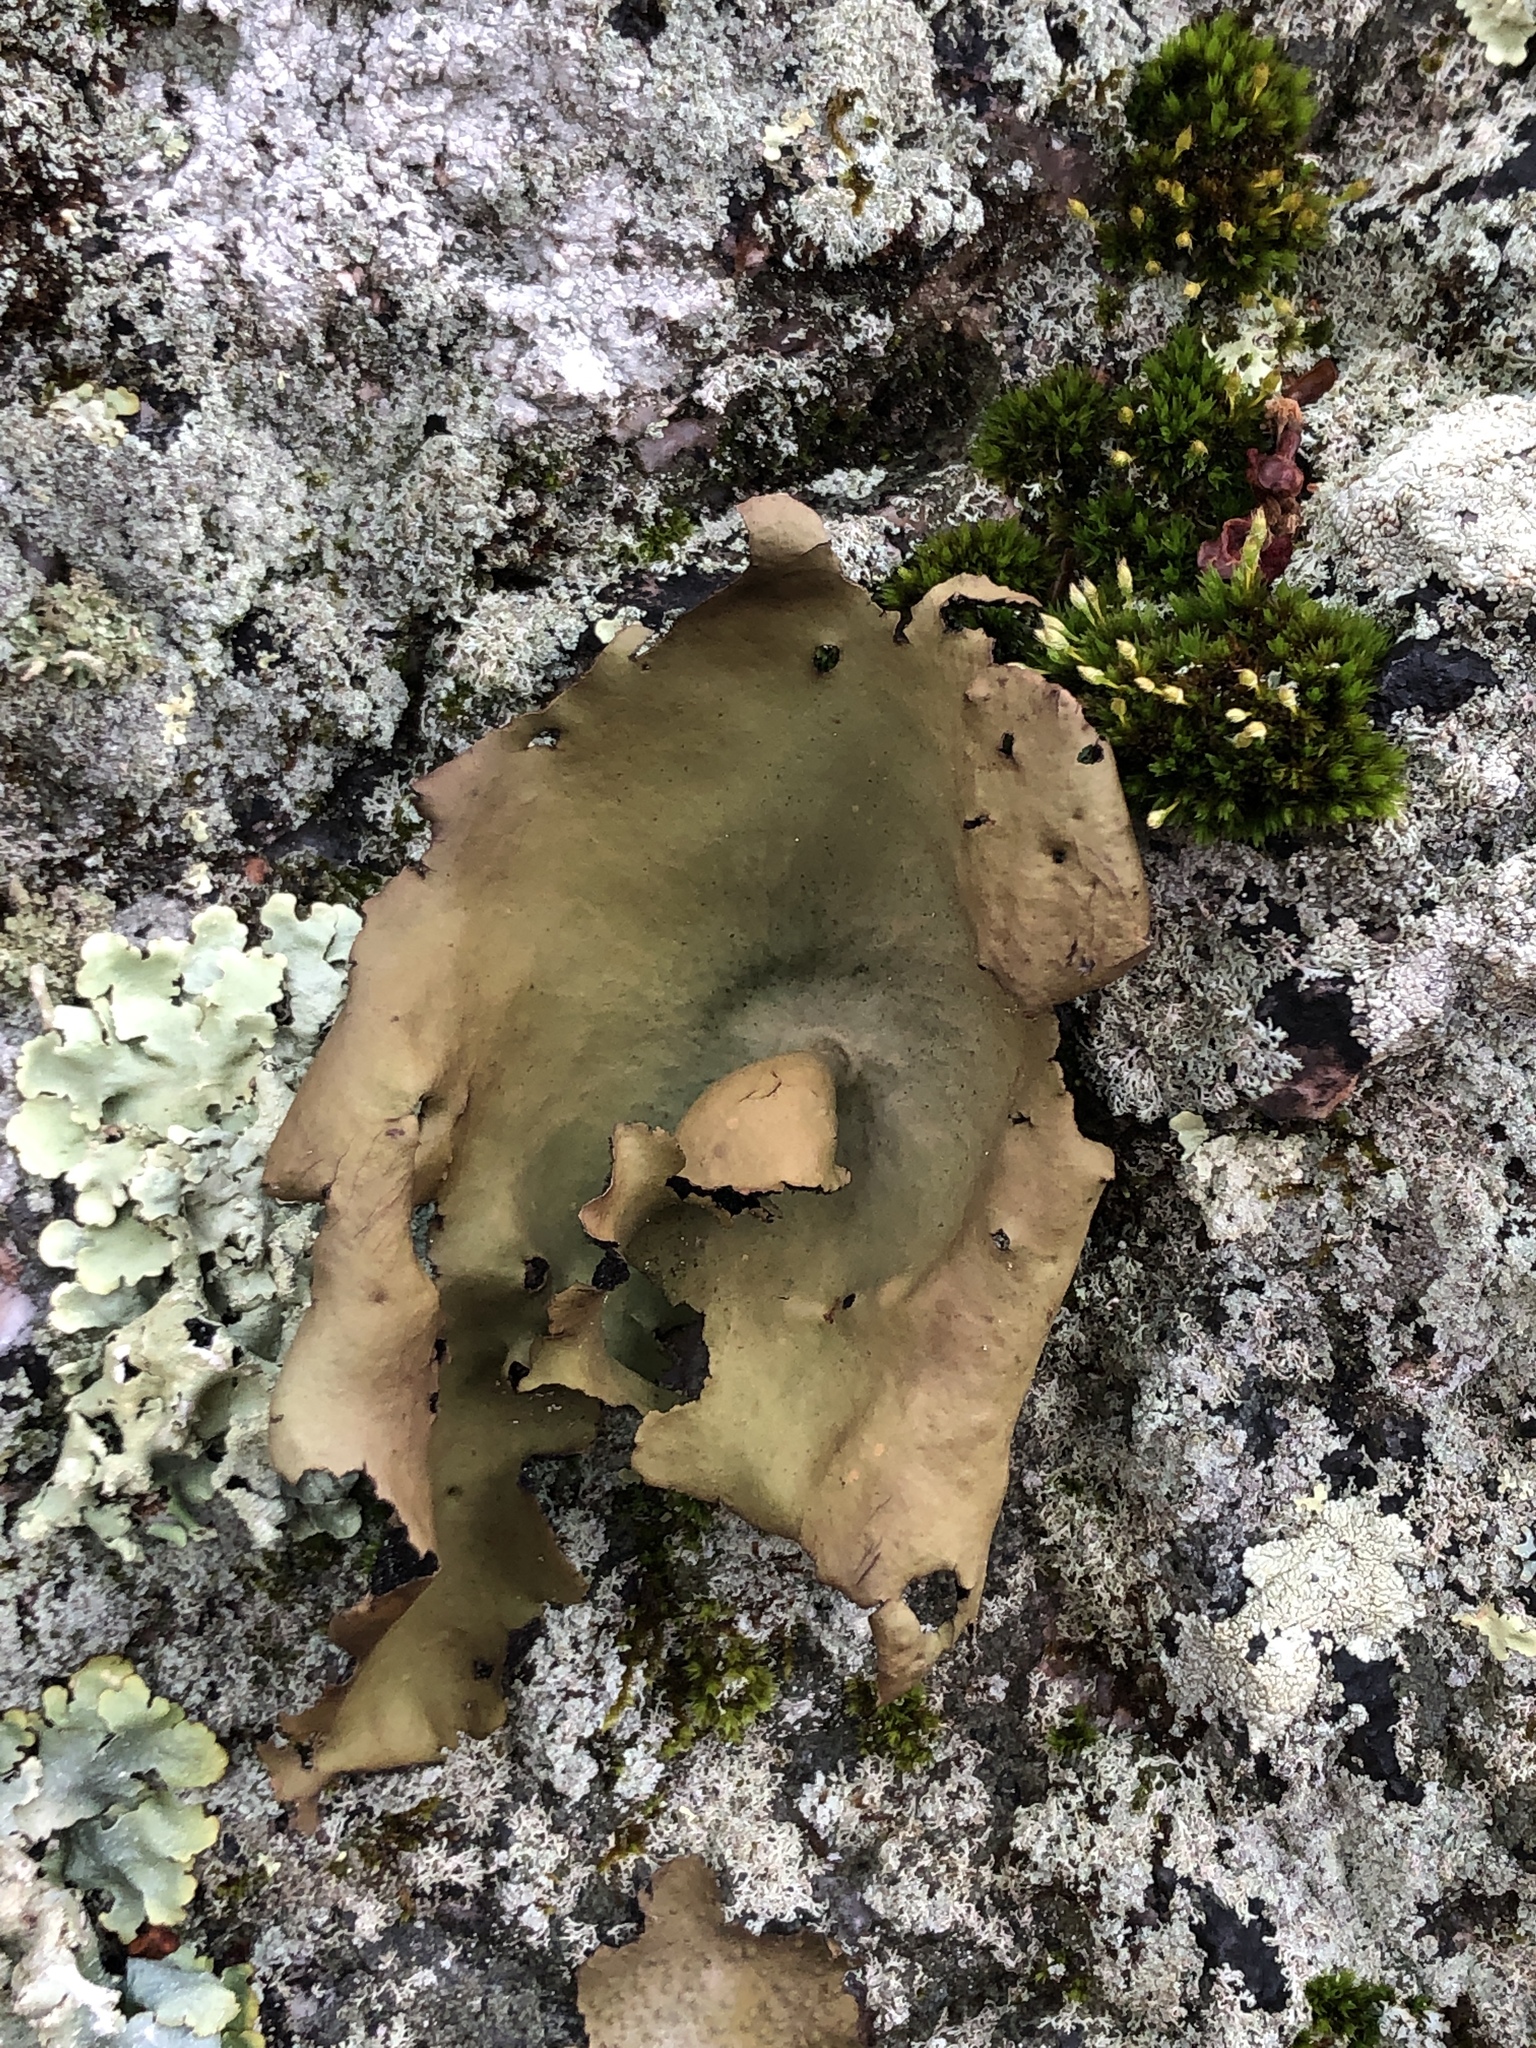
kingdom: Fungi
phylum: Ascomycota
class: Lecanoromycetes
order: Umbilicariales
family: Umbilicariaceae
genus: Umbilicaria
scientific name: Umbilicaria mammulata
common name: Smooth rock tripe
